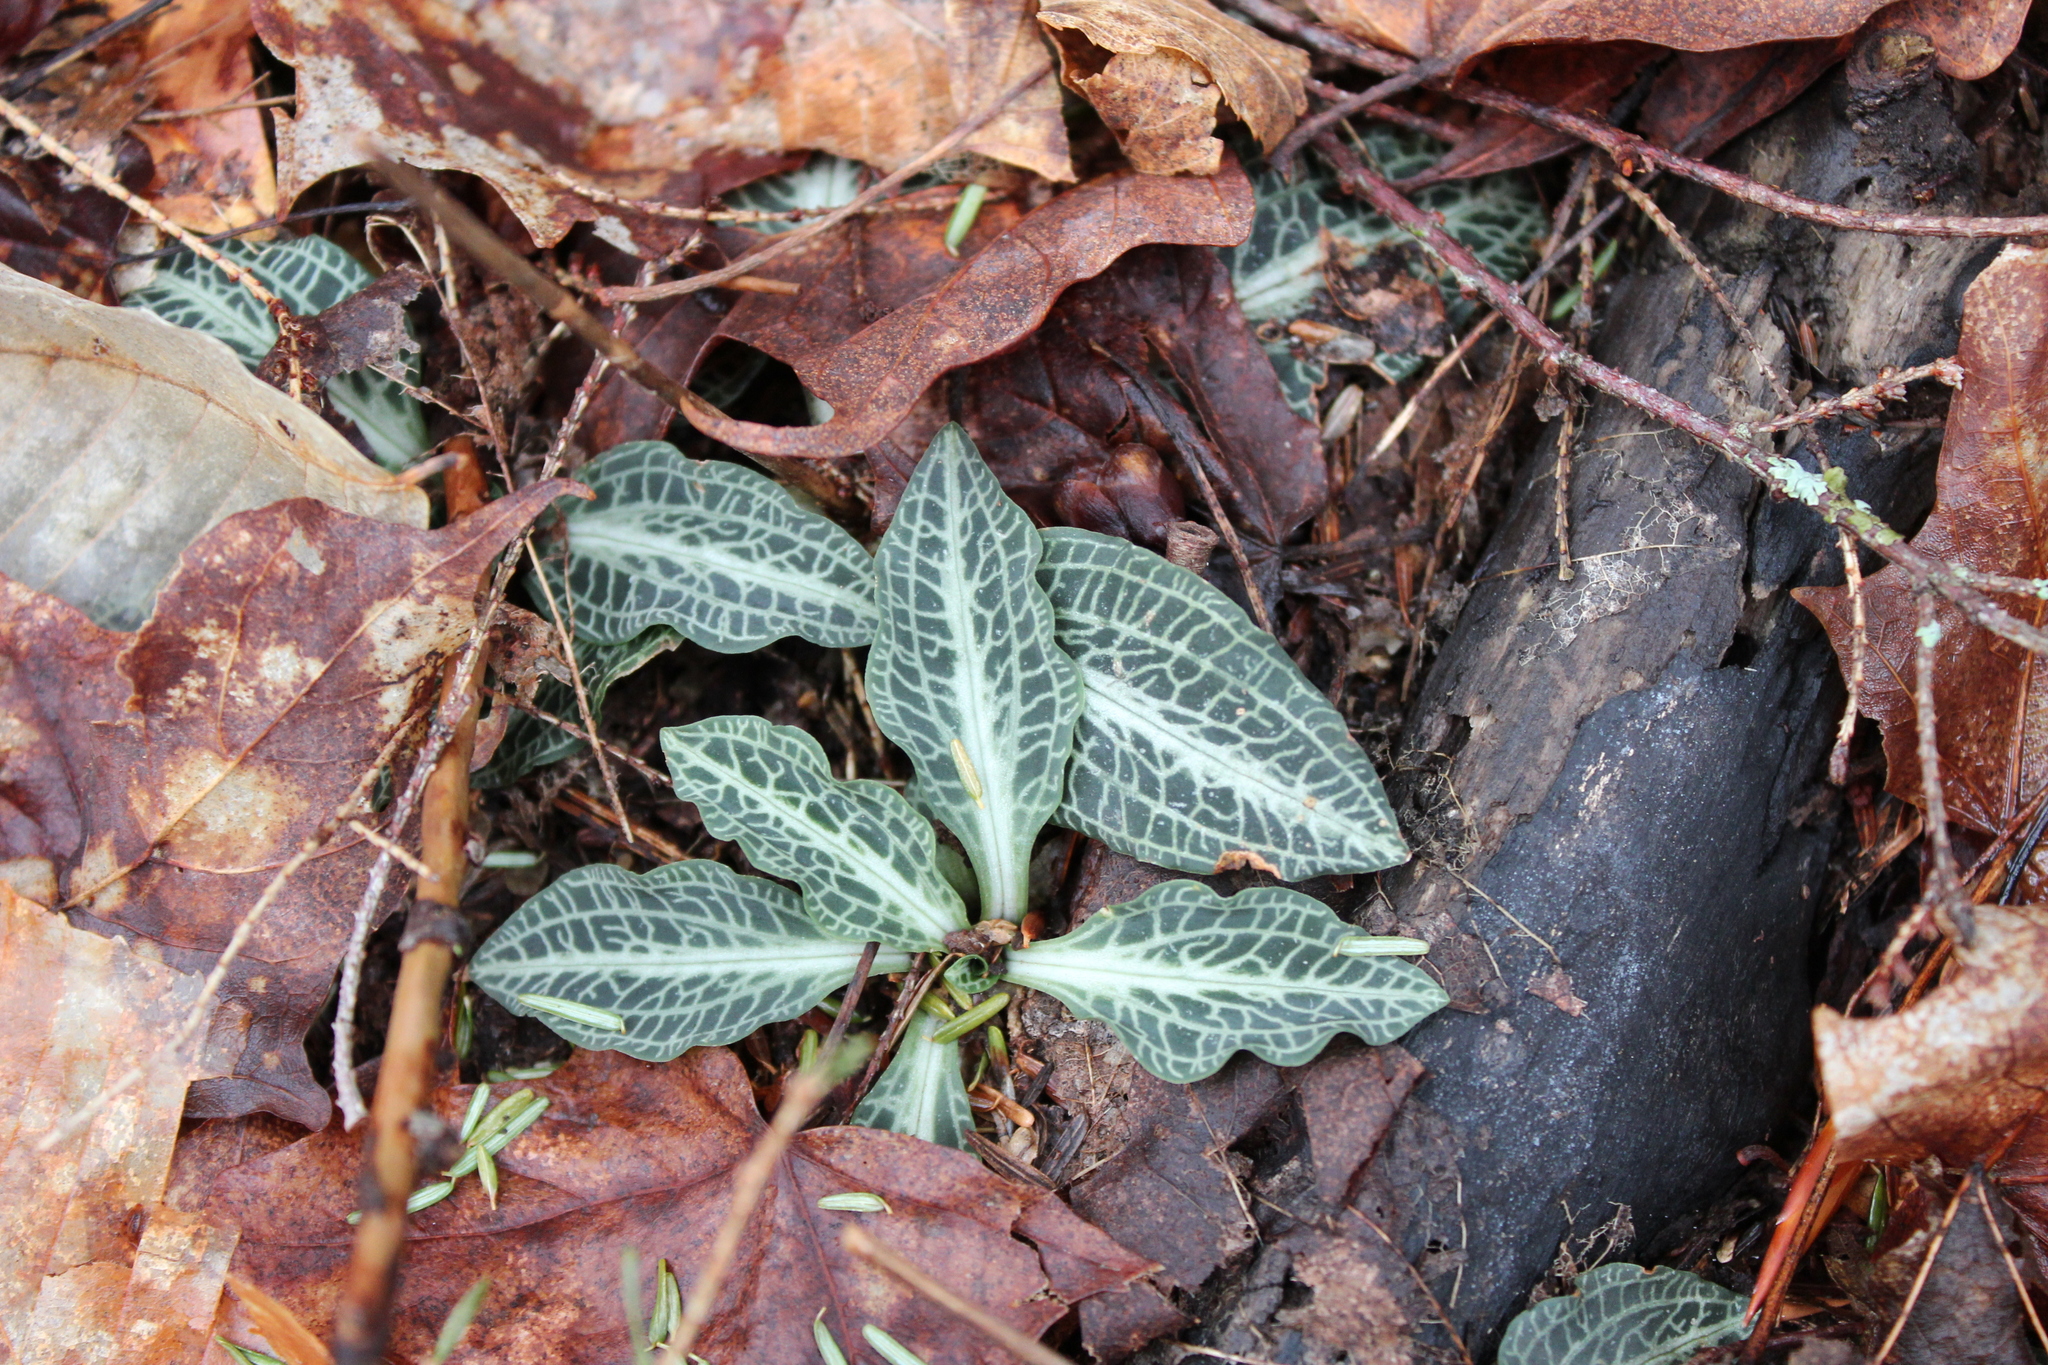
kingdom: Plantae
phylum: Tracheophyta
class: Liliopsida
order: Asparagales
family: Orchidaceae
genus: Goodyera
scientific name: Goodyera pubescens
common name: Downy rattlesnake-plantain
